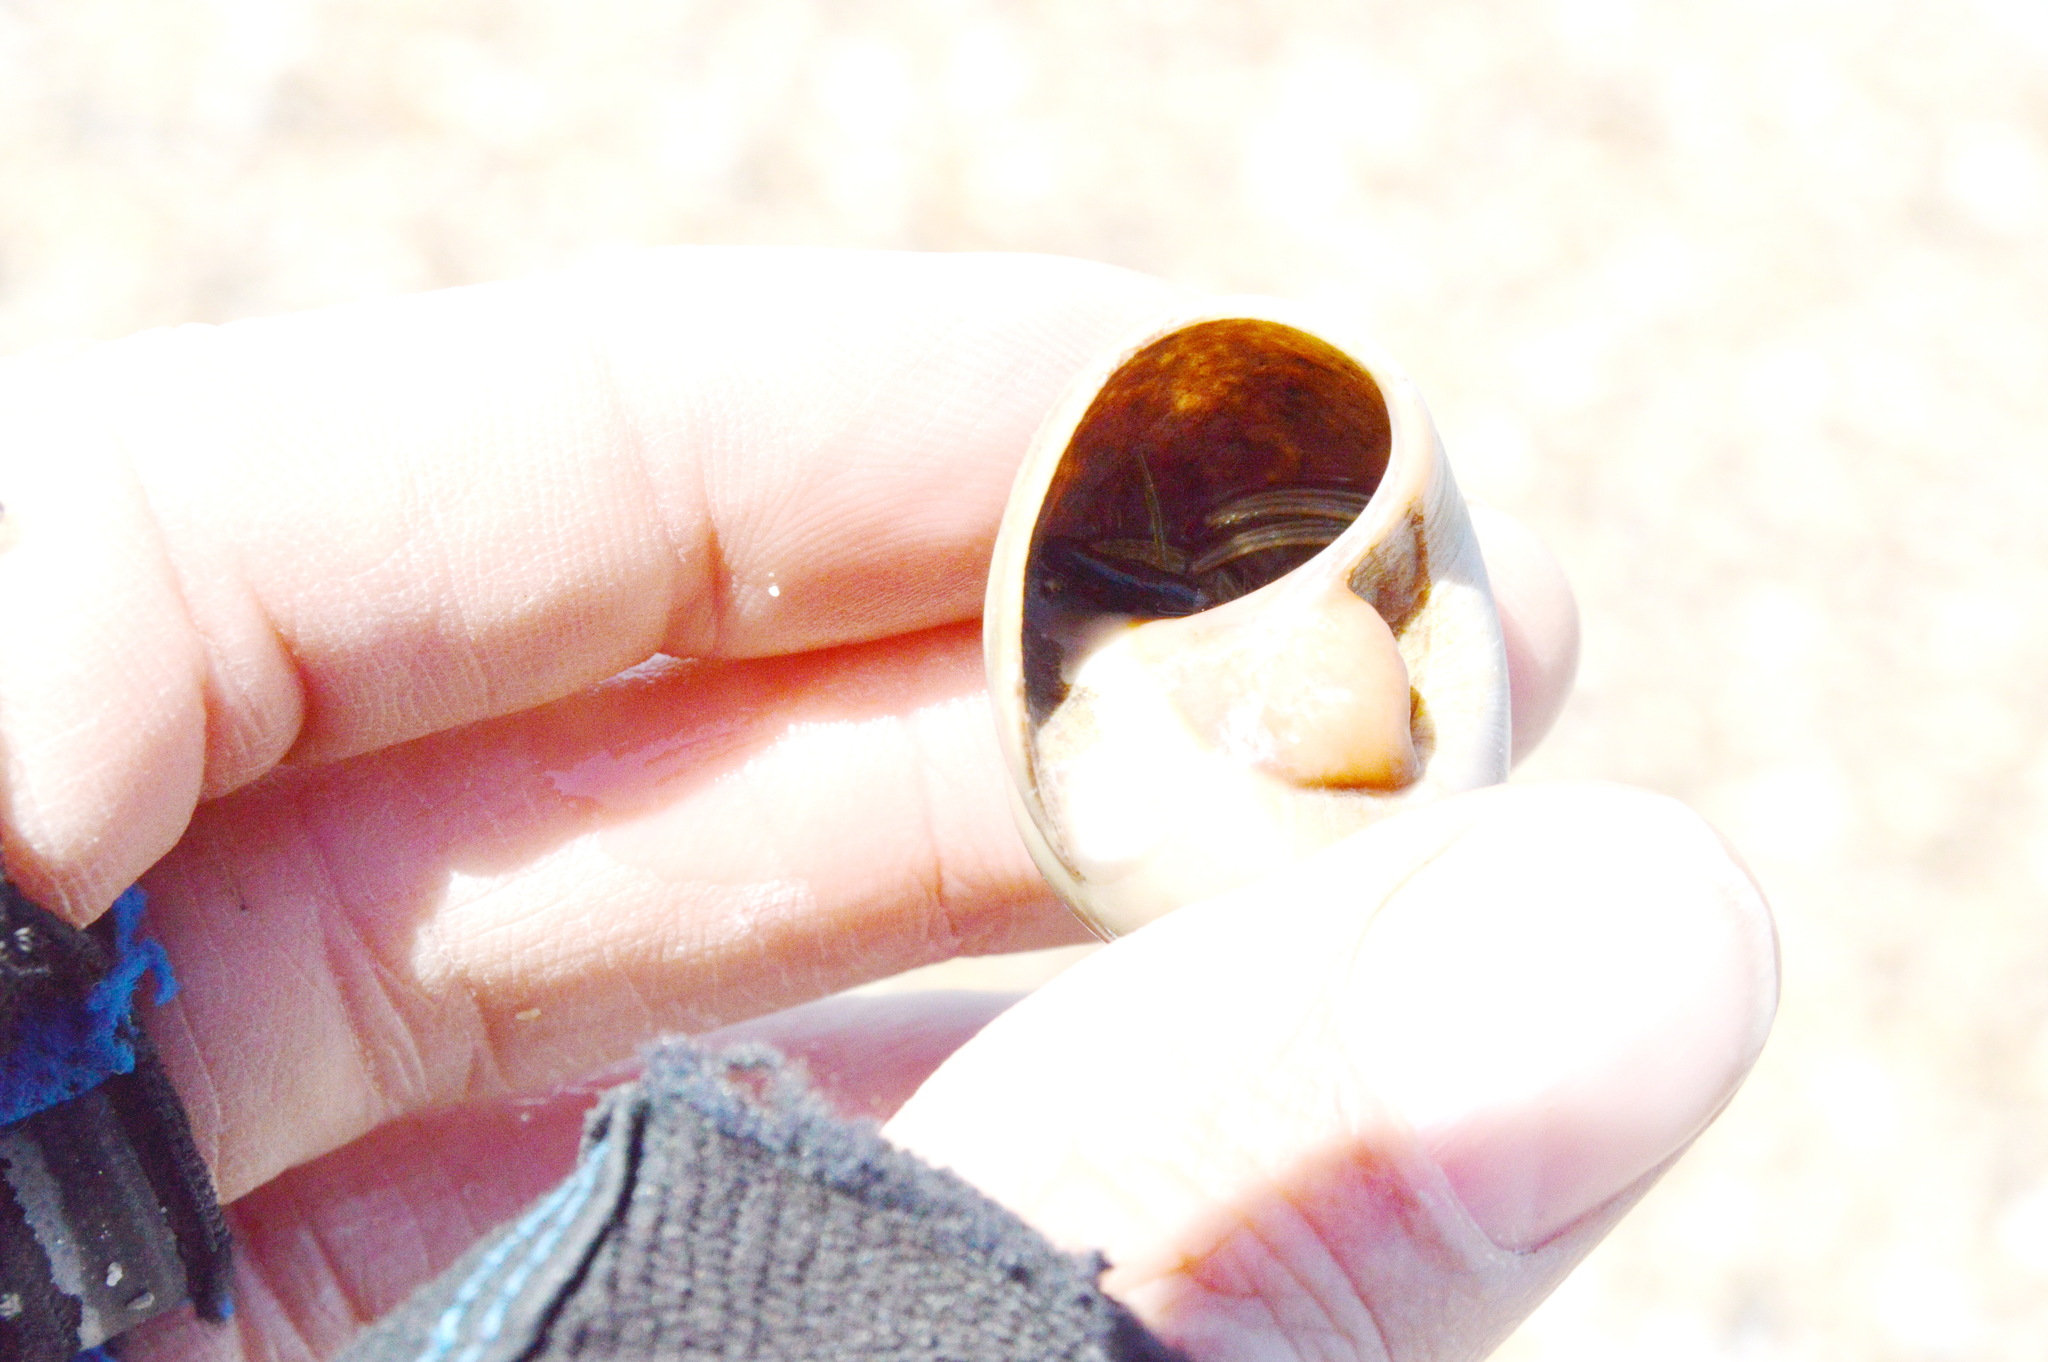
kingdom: Animalia
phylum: Arthropoda
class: Malacostraca
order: Decapoda
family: Diogenidae
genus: Clibanarius
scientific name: Clibanarius vittatus
